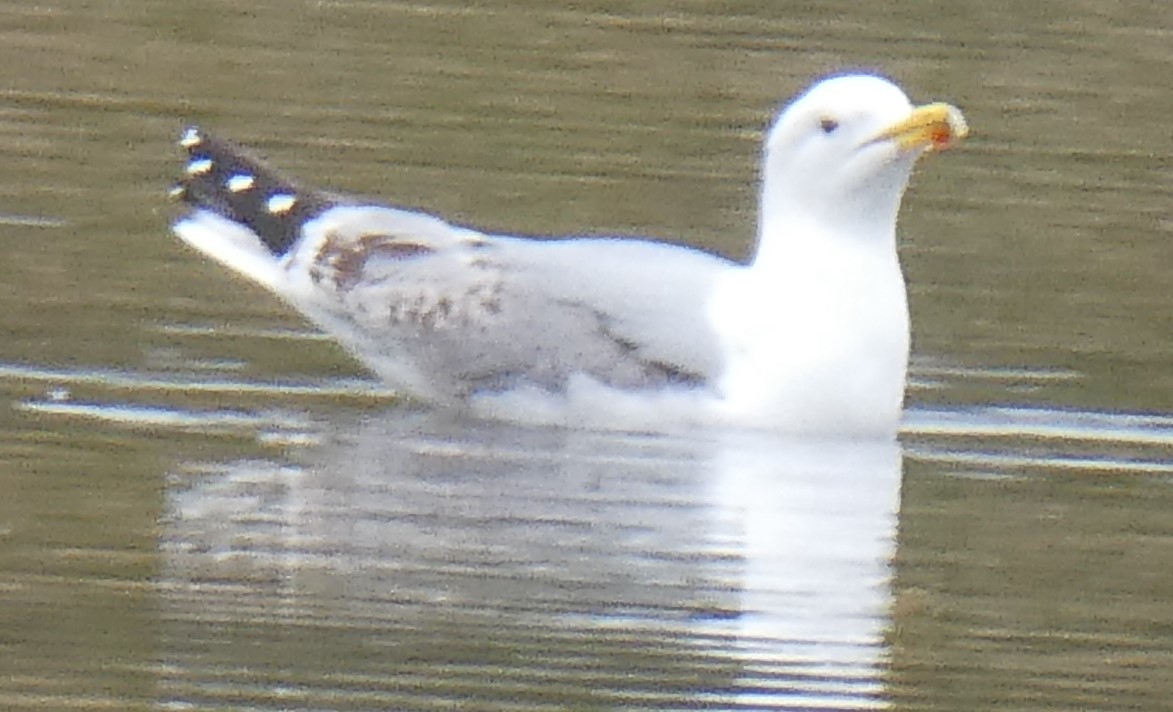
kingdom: Animalia
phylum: Chordata
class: Aves
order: Charadriiformes
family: Laridae
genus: Larus
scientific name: Larus argentatus
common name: Herring gull
